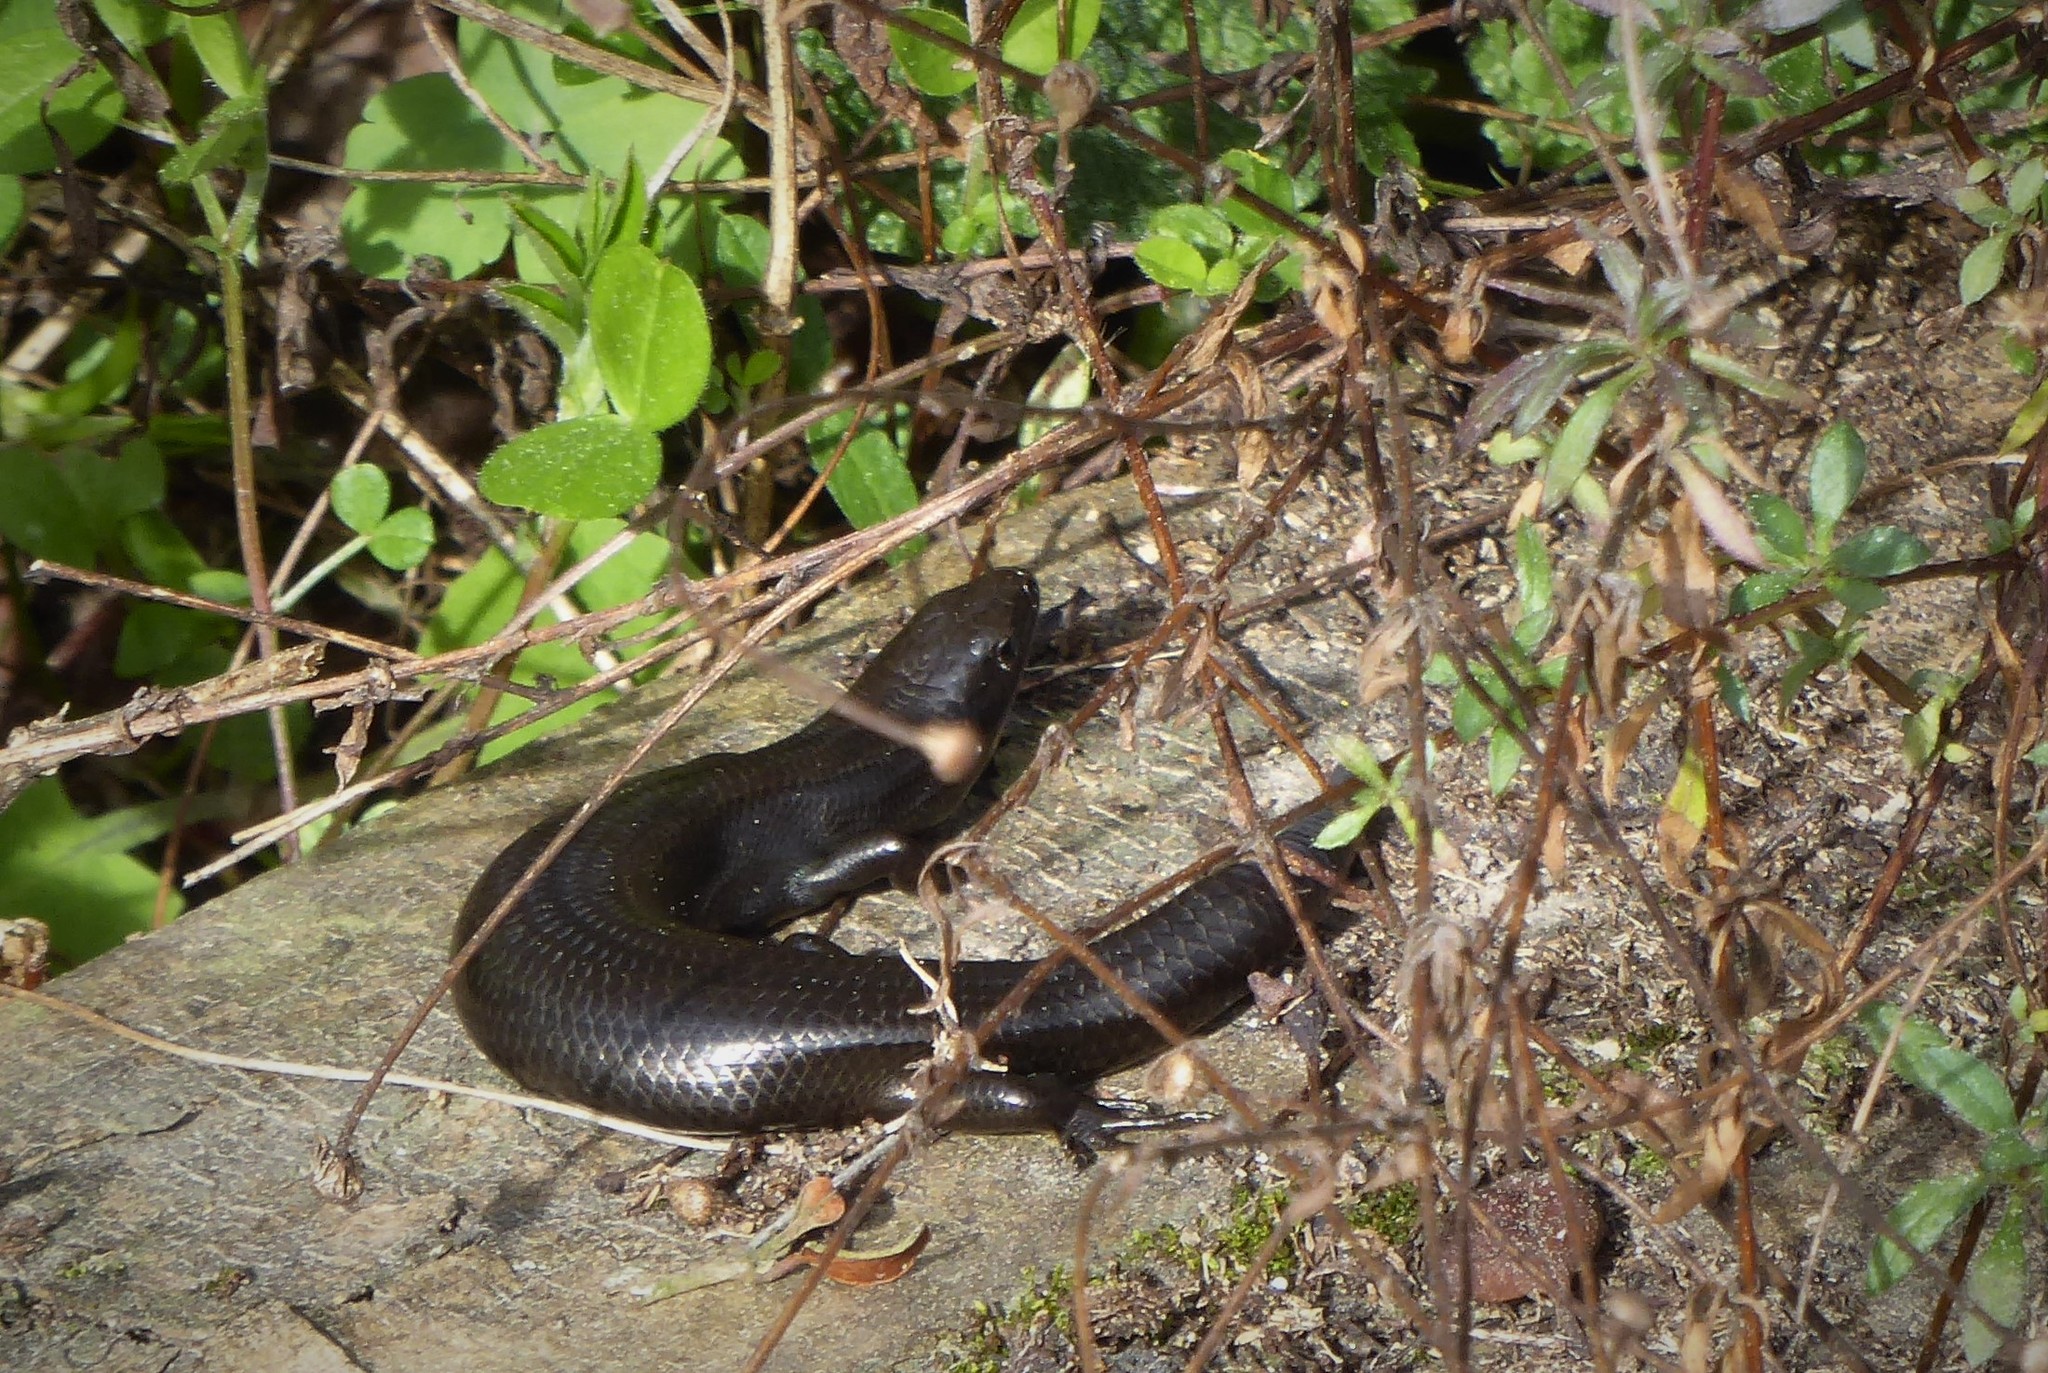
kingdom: Animalia
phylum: Chordata
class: Squamata
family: Scincidae
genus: Oligosoma
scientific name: Oligosoma polychroma
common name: Common new zealand skink
